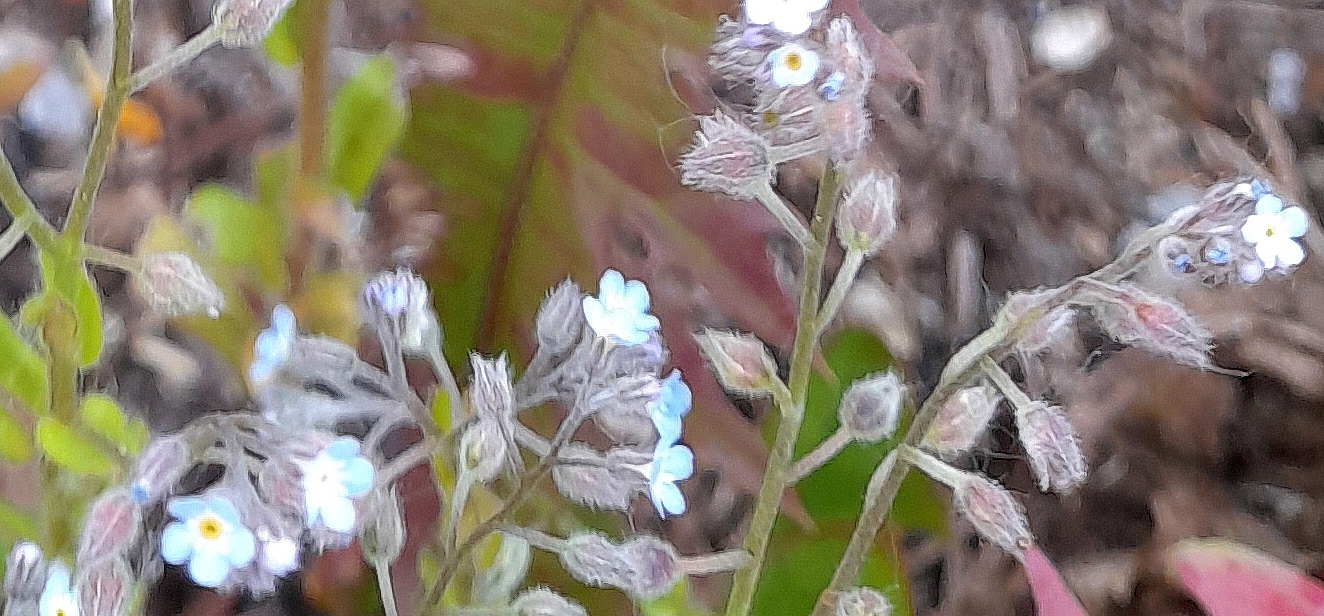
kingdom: Plantae
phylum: Tracheophyta
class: Magnoliopsida
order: Boraginales
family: Boraginaceae
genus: Myosotis
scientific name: Myosotis arvensis
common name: Field forget-me-not
